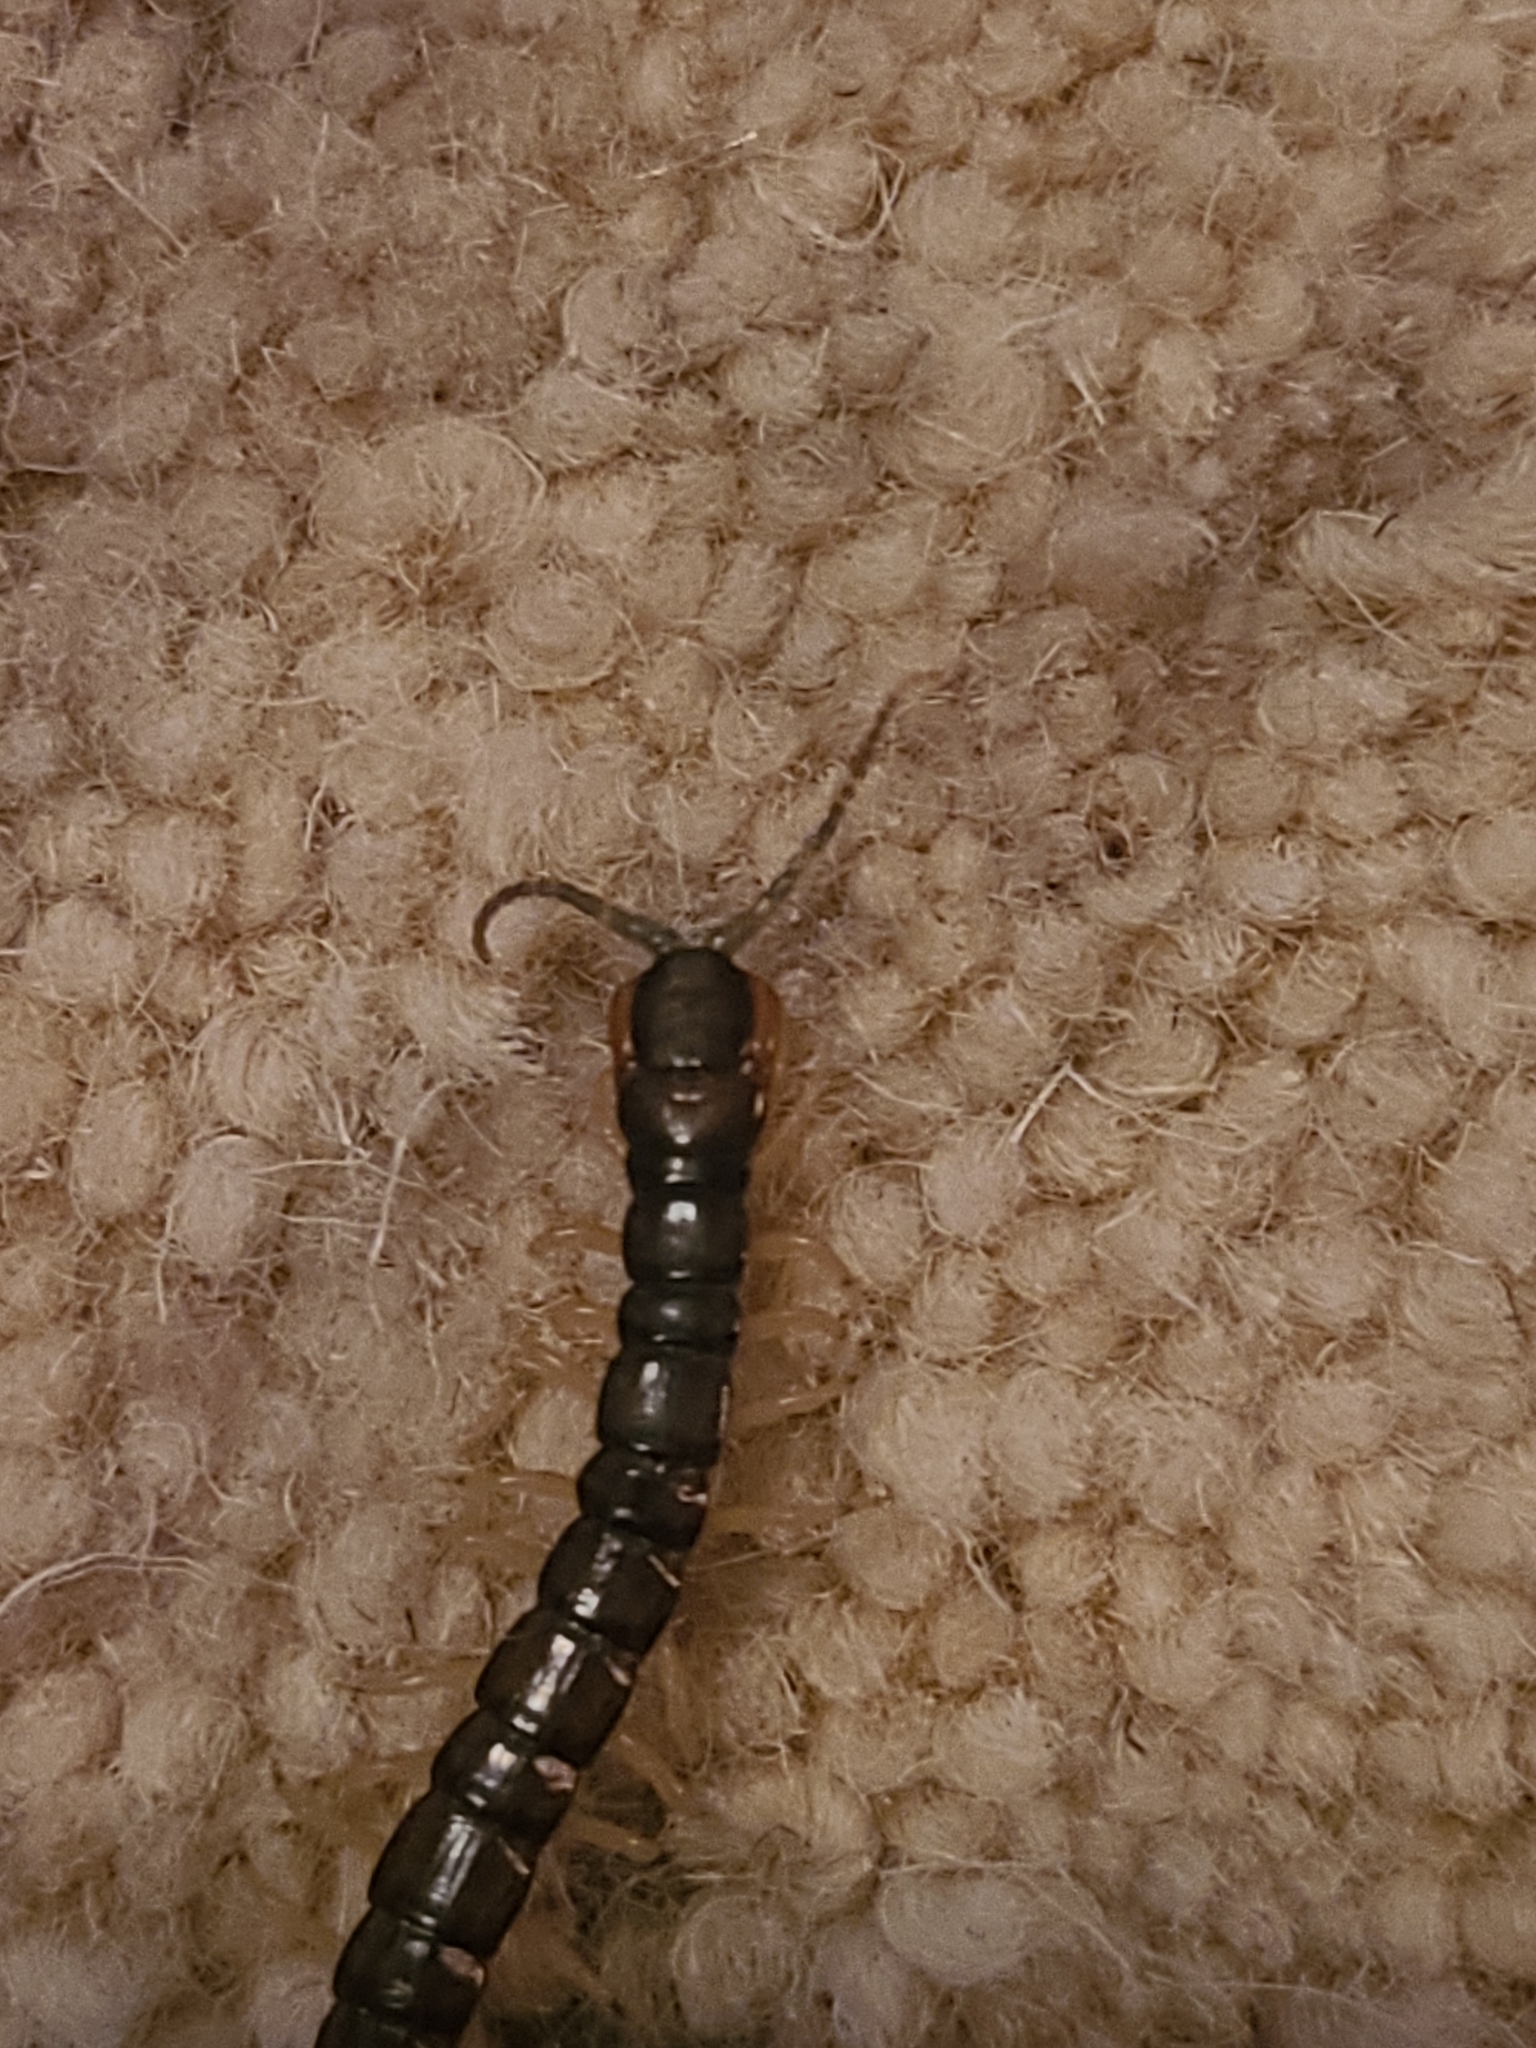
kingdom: Animalia
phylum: Arthropoda
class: Chilopoda
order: Scolopendromorpha
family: Scolopendridae
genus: Hemiscolopendra
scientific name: Hemiscolopendra marginata
